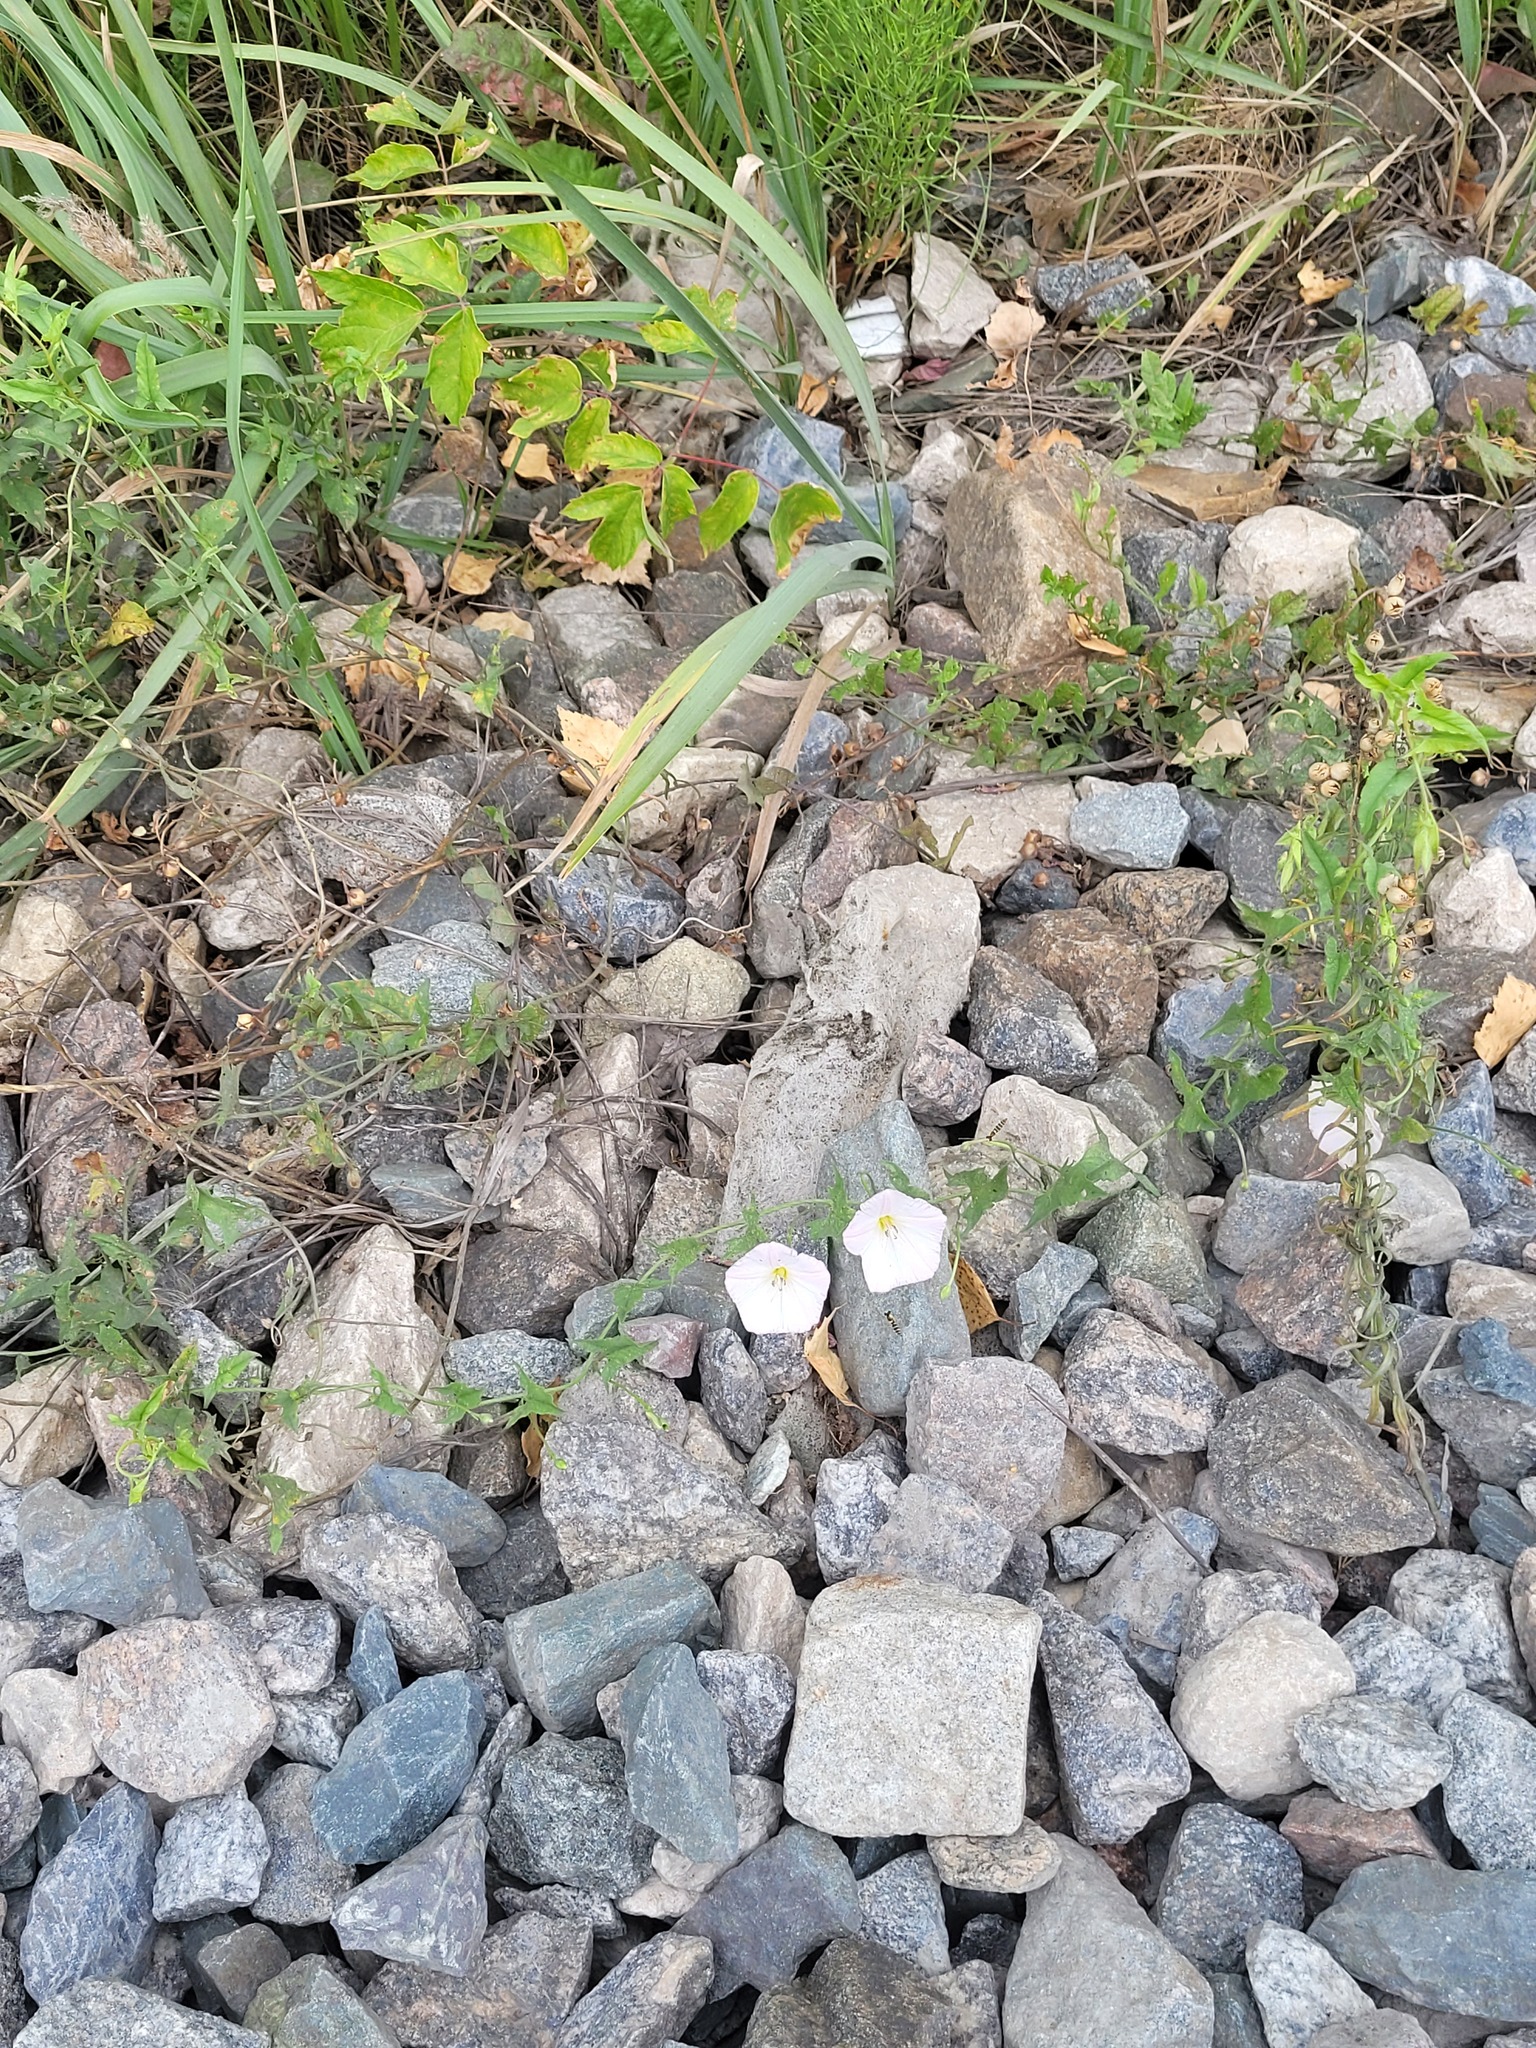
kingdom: Plantae
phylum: Tracheophyta
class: Magnoliopsida
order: Solanales
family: Convolvulaceae
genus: Convolvulus
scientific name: Convolvulus arvensis
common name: Field bindweed
